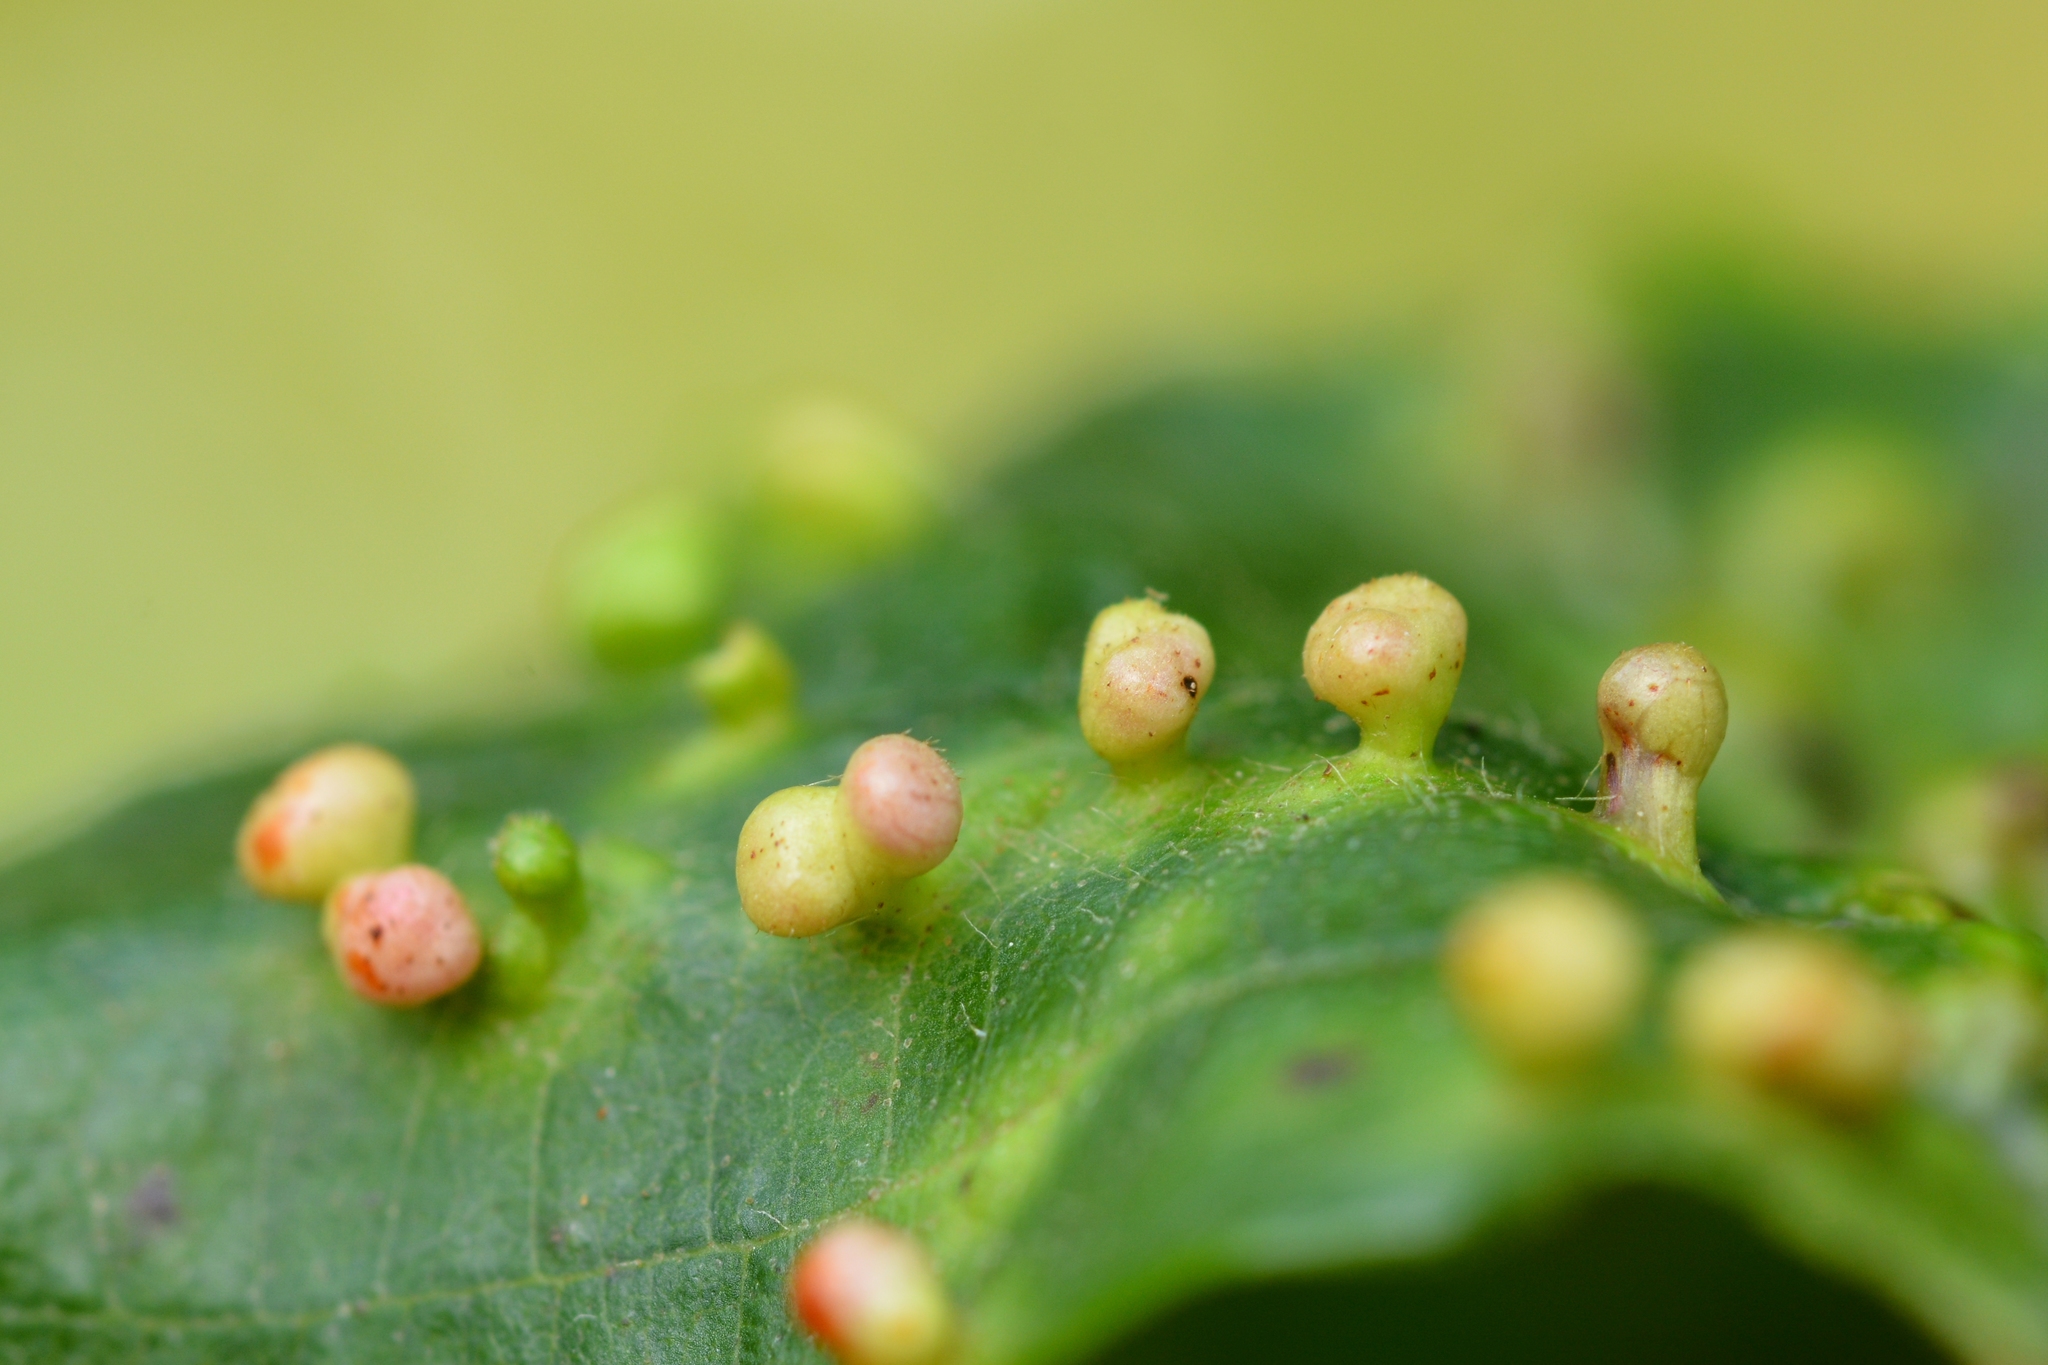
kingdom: Animalia
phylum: Arthropoda
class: Arachnida
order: Trombidiformes
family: Eriophyidae
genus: Eriophyes
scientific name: Eriophyes laevis
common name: Alder leaf gall mite
